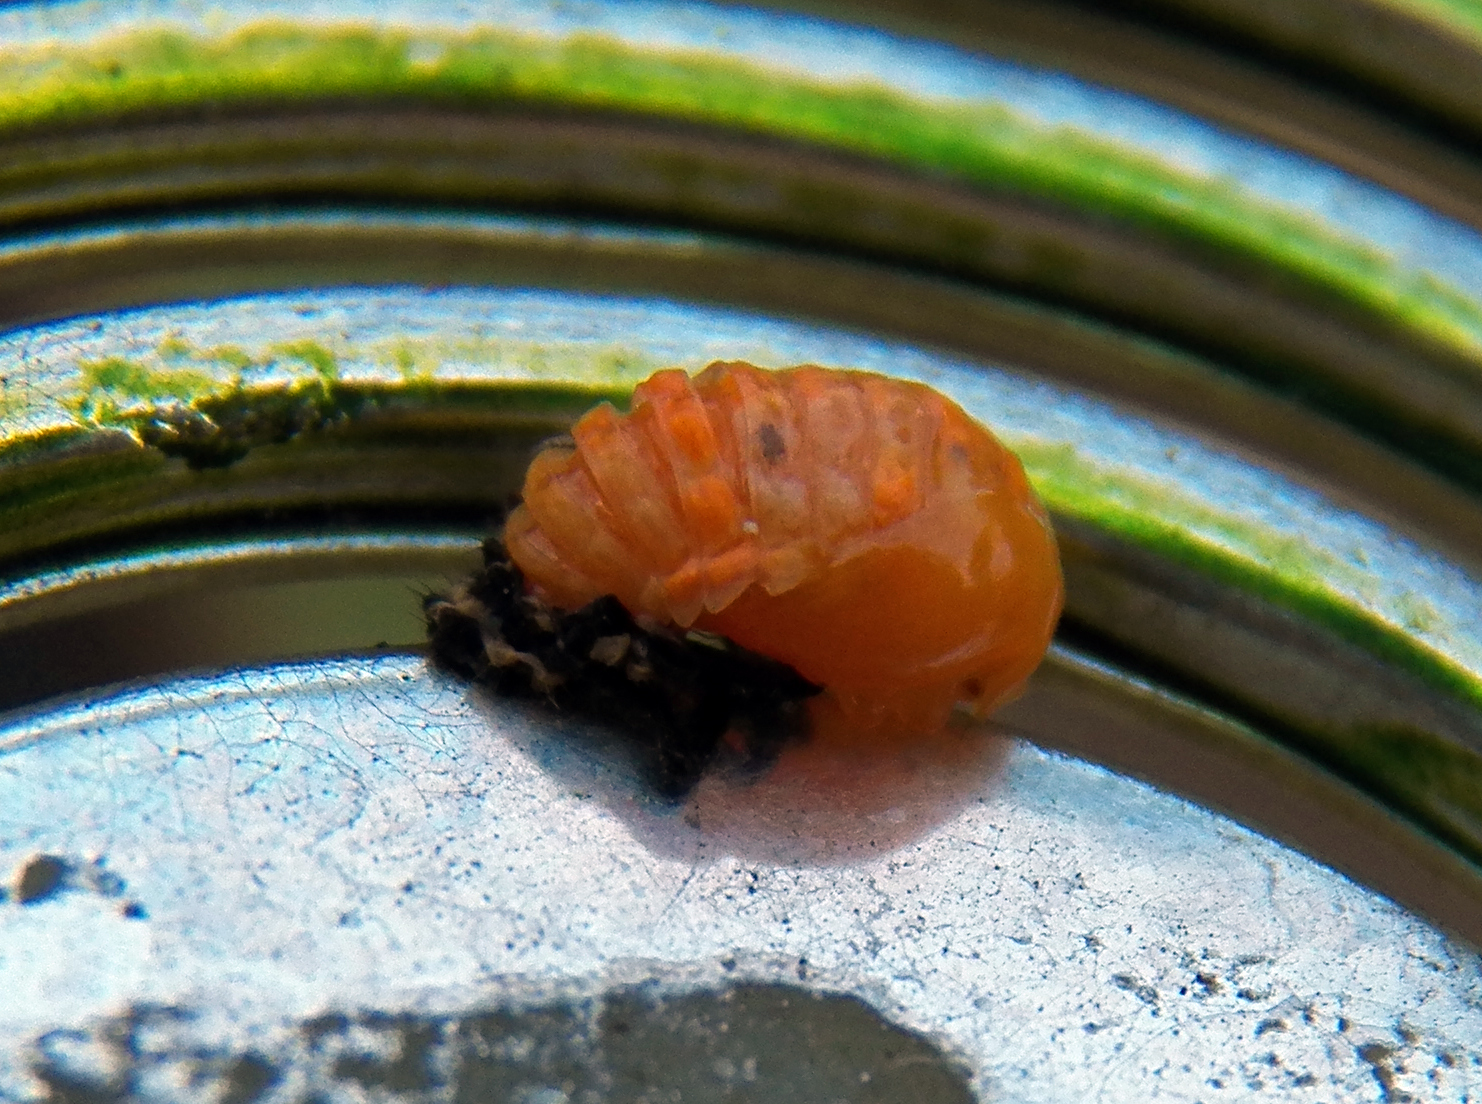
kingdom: Animalia
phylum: Arthropoda
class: Insecta
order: Coleoptera
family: Coccinellidae
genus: Harmonia
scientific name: Harmonia axyridis
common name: Harlequin ladybird
